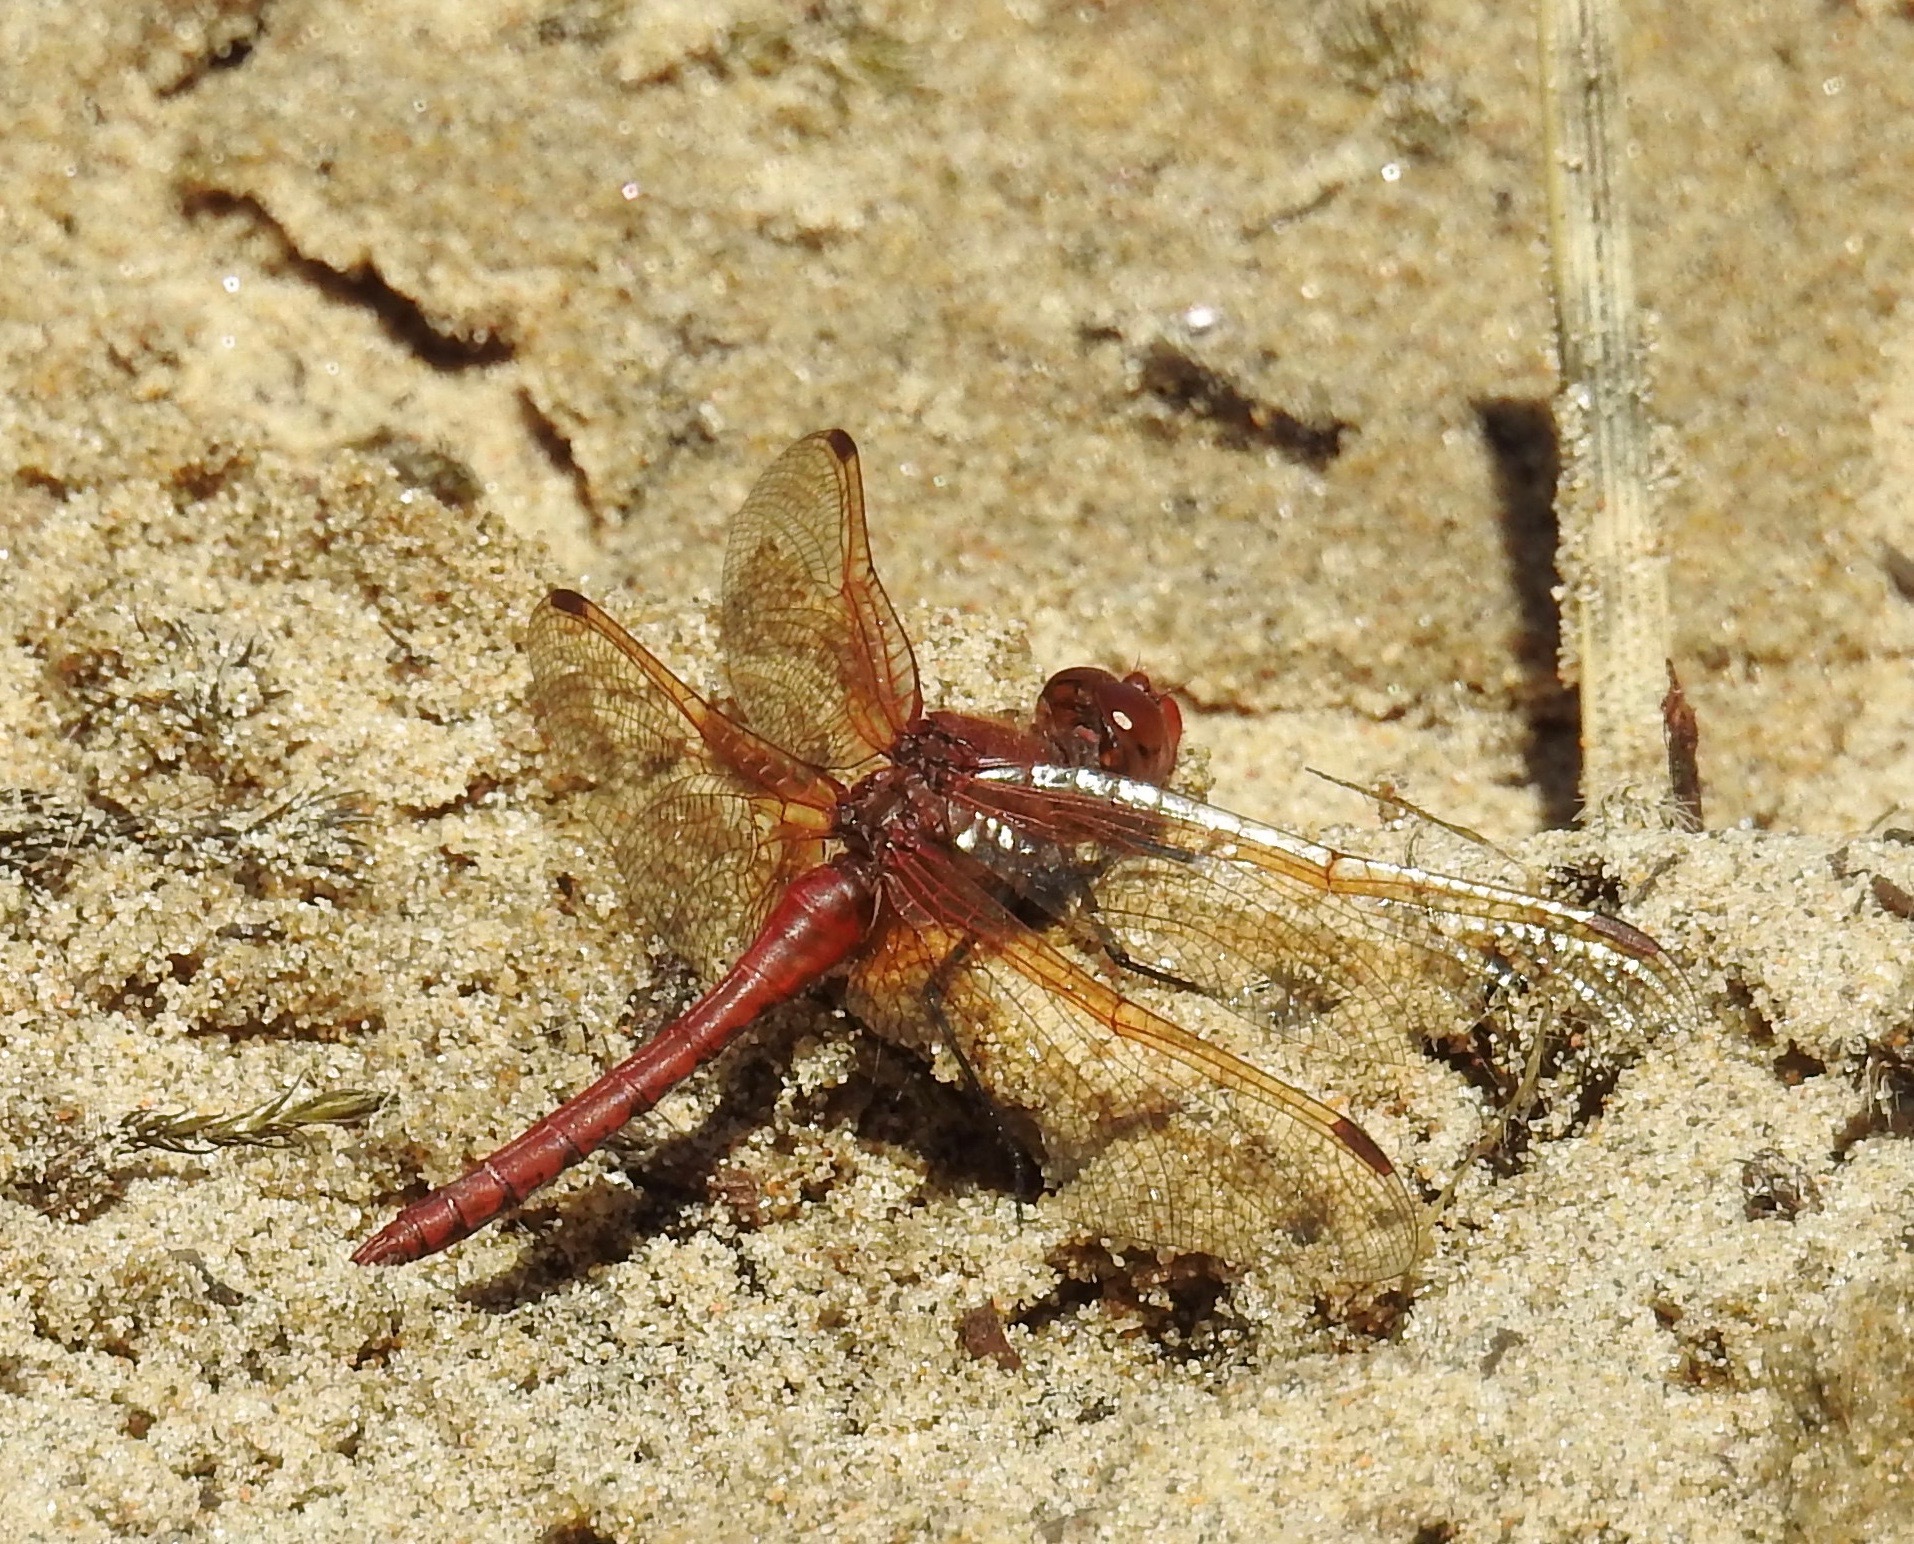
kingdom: Animalia
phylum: Arthropoda
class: Insecta
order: Odonata
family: Libellulidae
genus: Sympetrum
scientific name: Sympetrum madidum
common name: Red-veined meadowhawk
